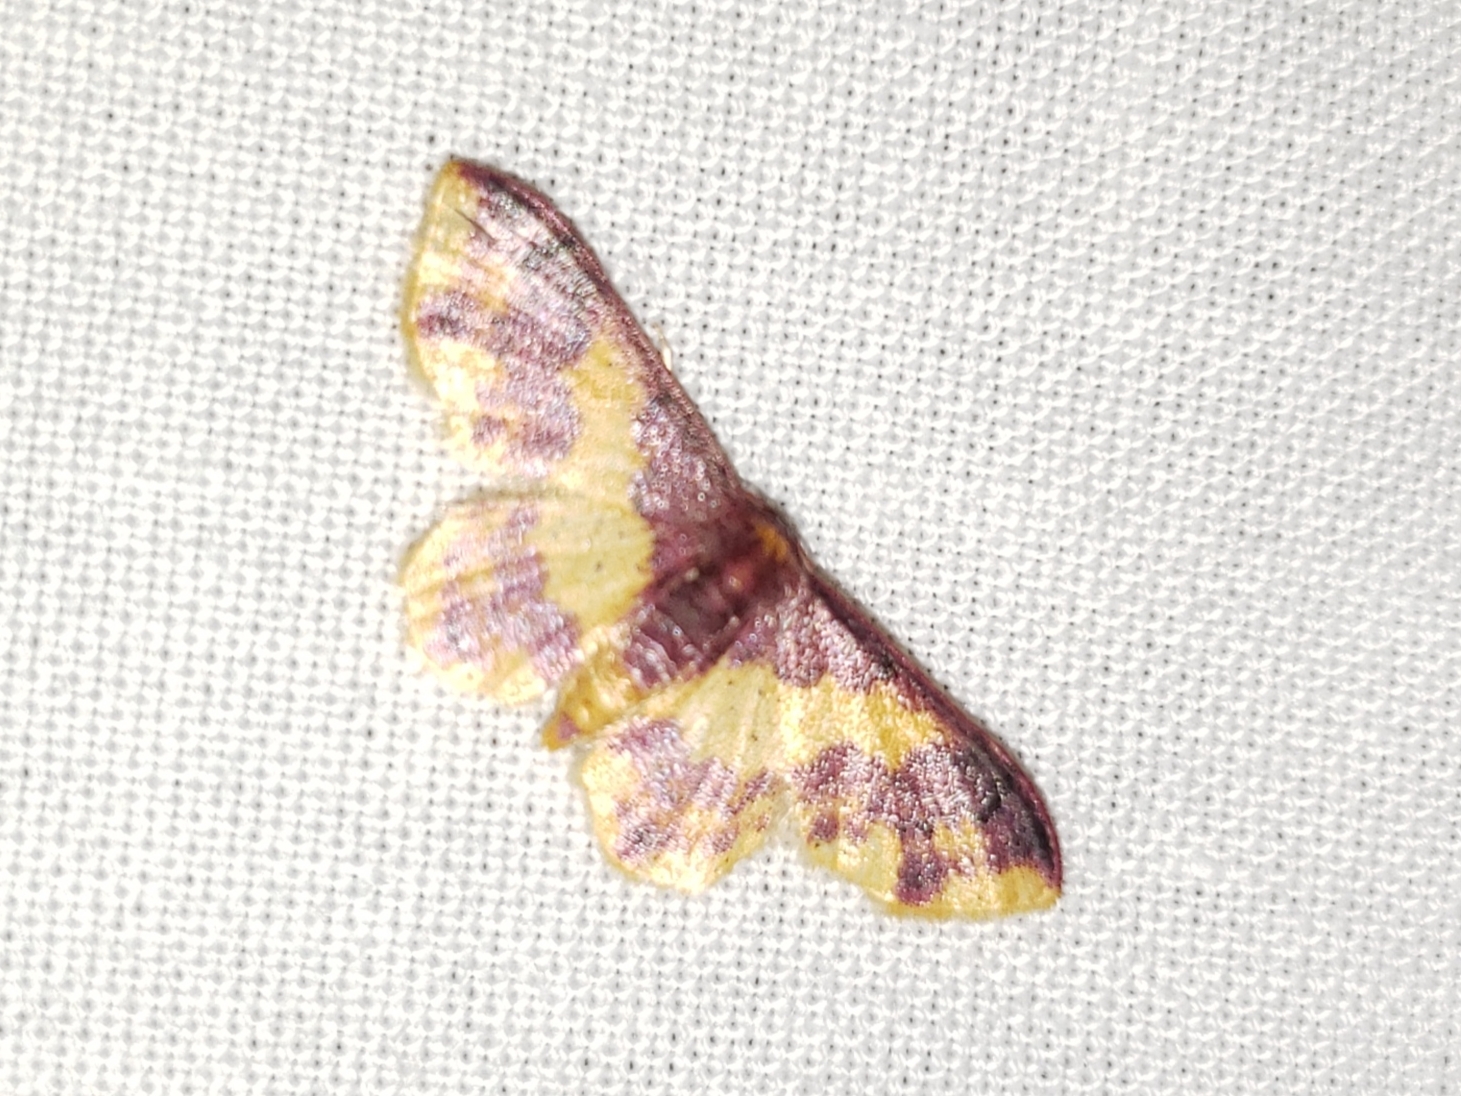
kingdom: Animalia
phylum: Arthropoda
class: Insecta
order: Lepidoptera
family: Geometridae
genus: Lophosis
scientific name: Lophosis labeculata
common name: Stained lophosis moth
